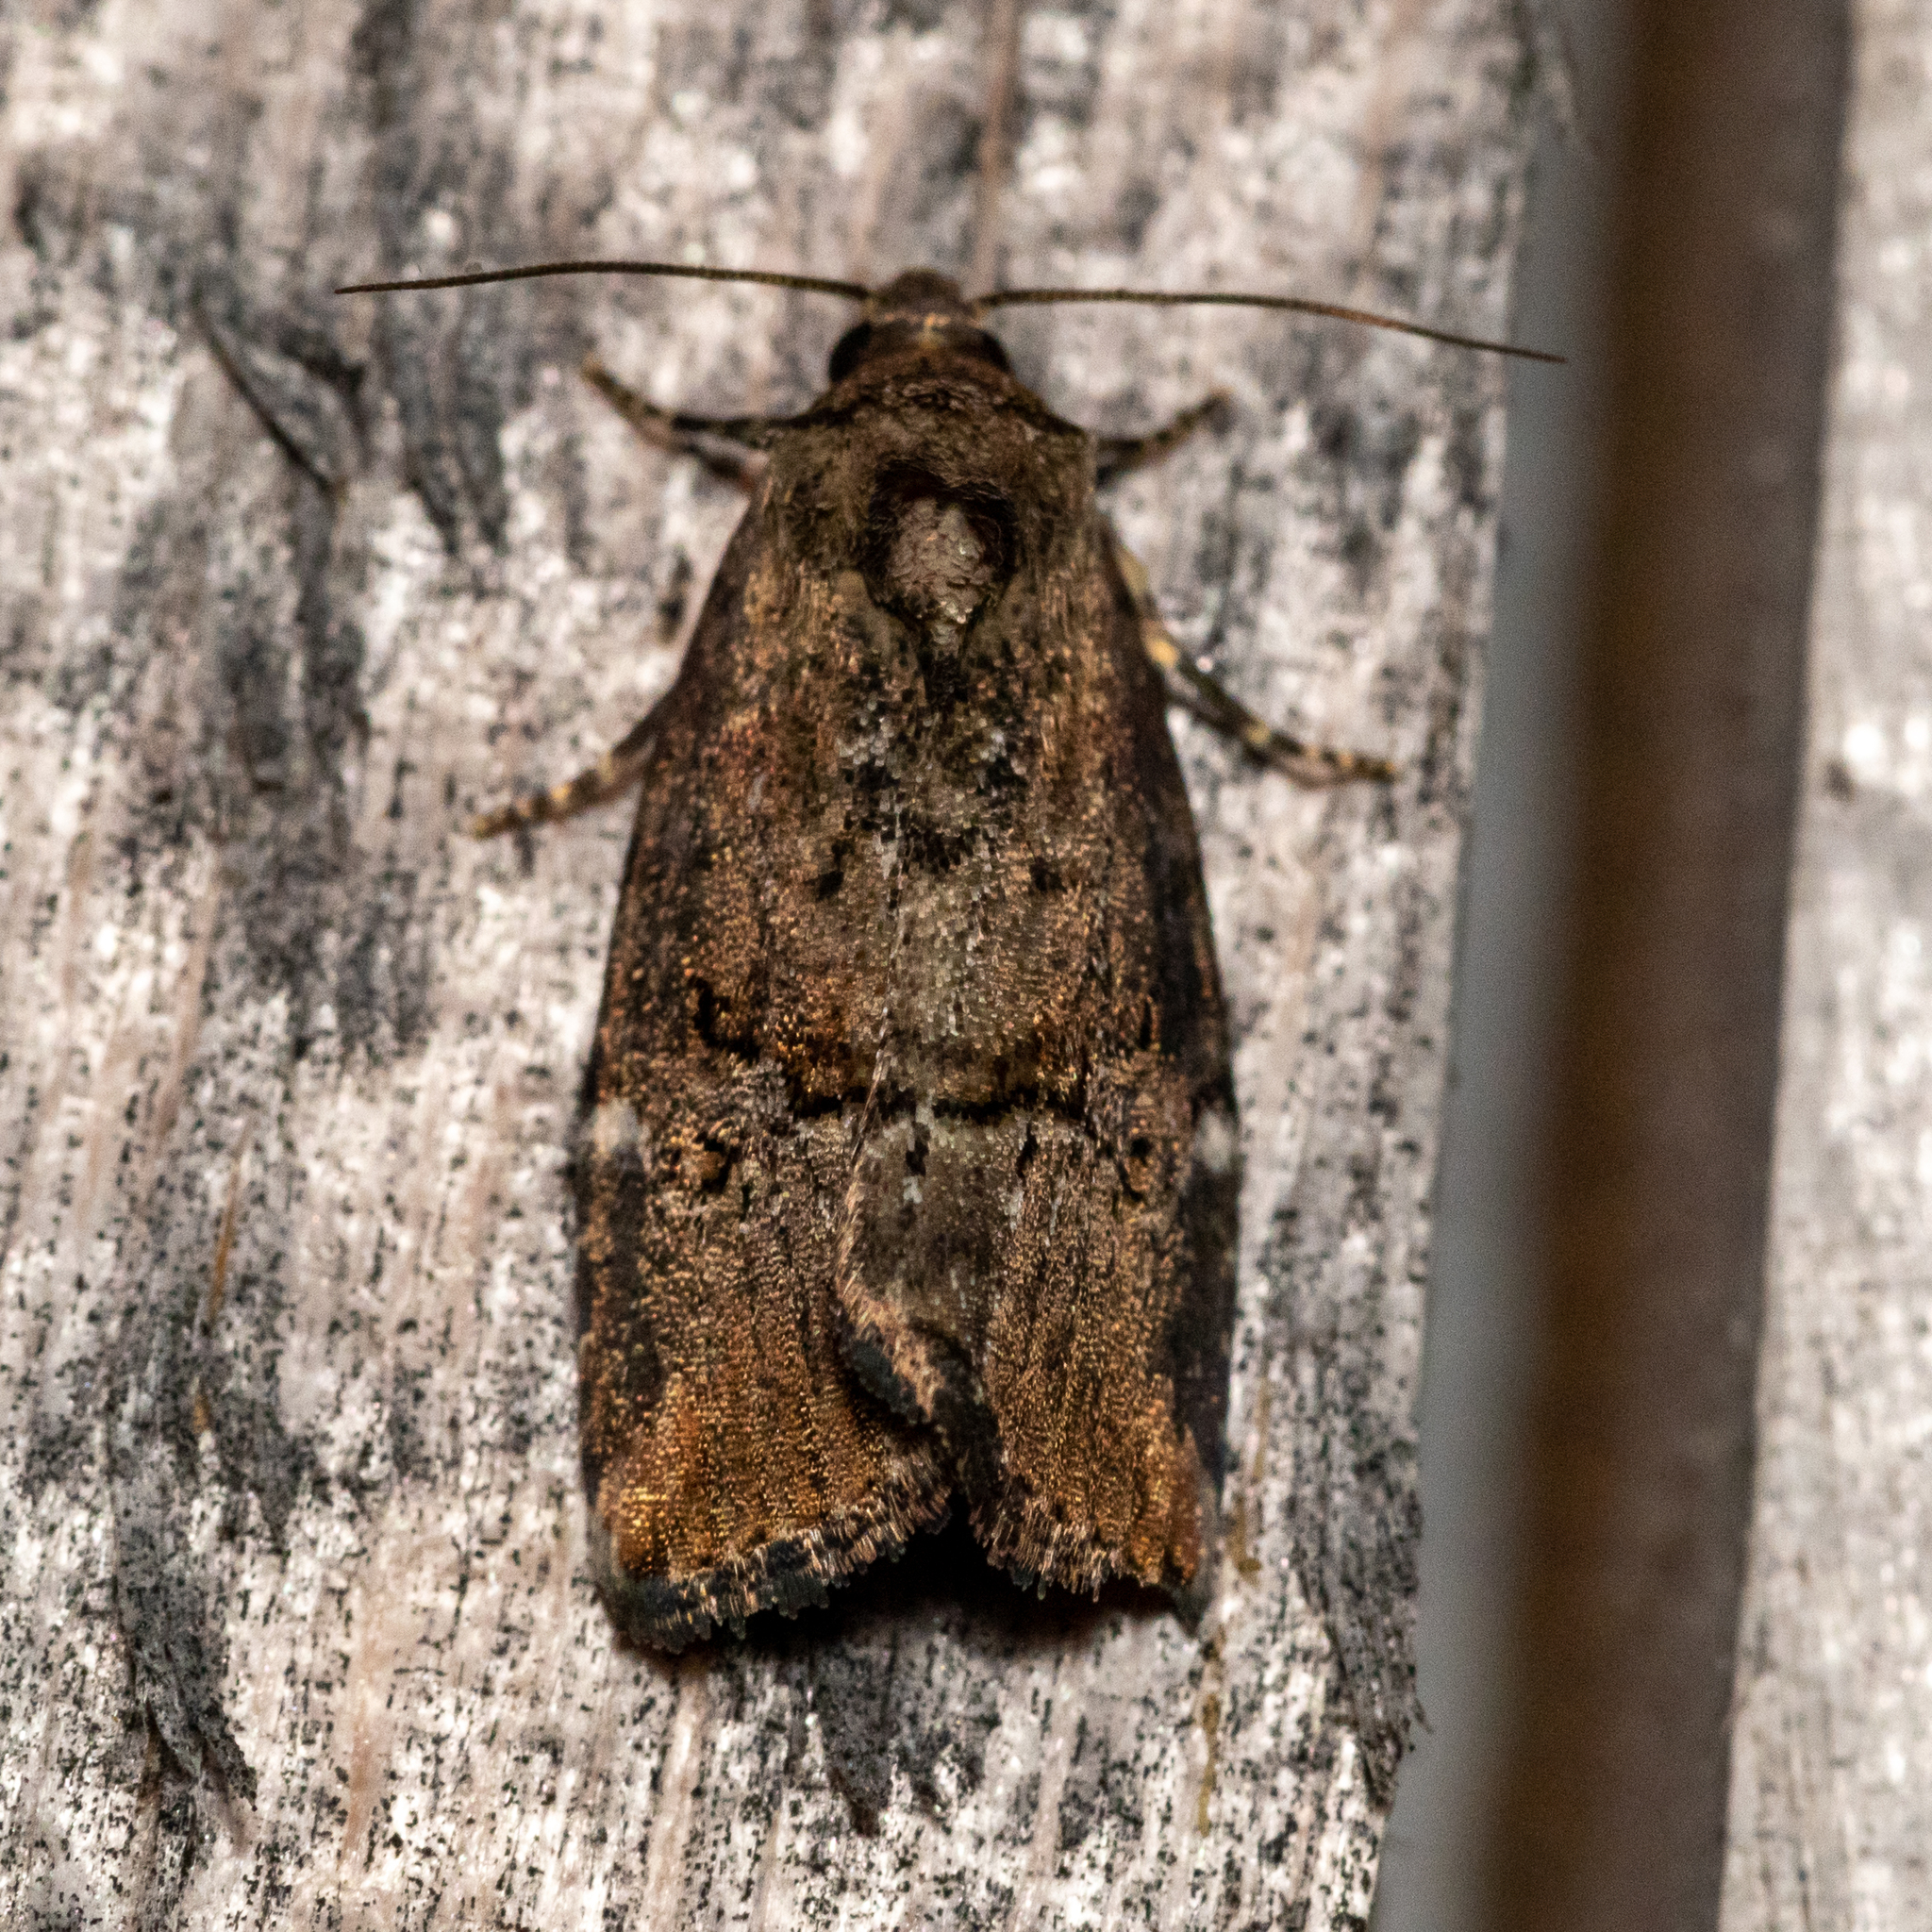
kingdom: Animalia
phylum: Arthropoda
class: Insecta
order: Lepidoptera
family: Noctuidae
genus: Elaphria
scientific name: Elaphria versicolor
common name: Fir harlequin
